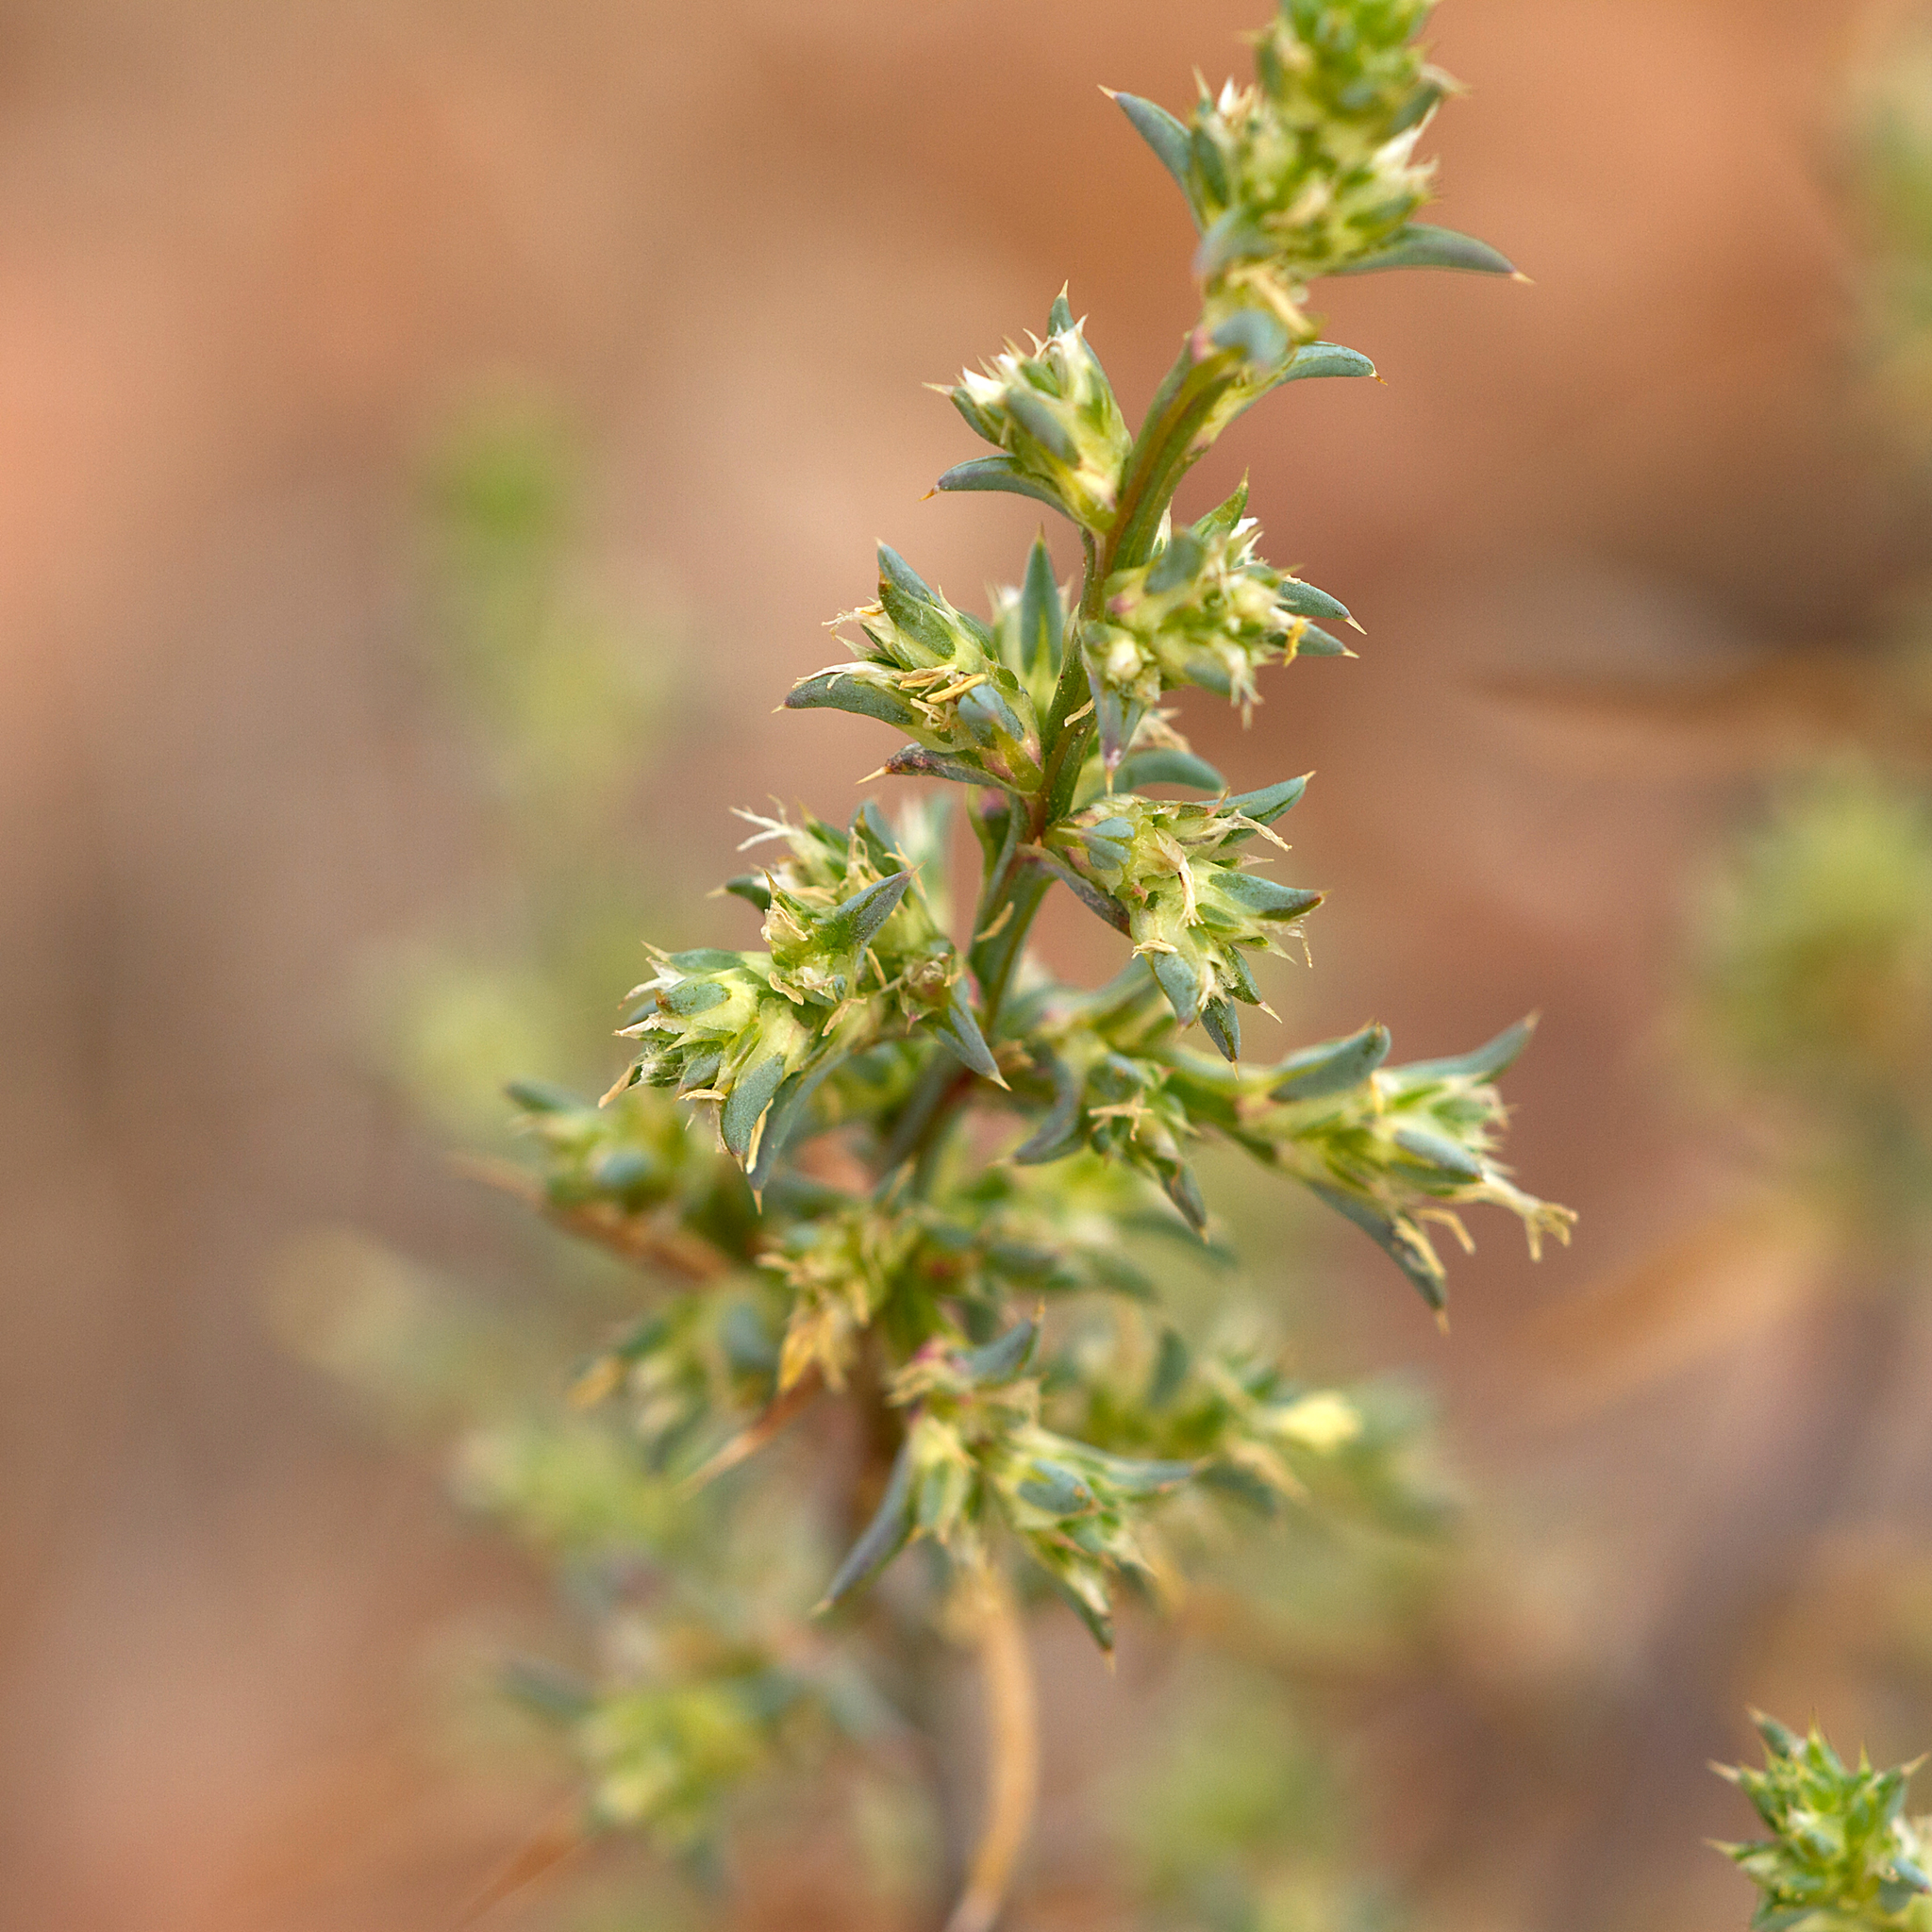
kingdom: Plantae
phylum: Tracheophyta
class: Magnoliopsida
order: Caryophyllales
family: Amaranthaceae
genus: Salsola
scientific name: Salsola australis
